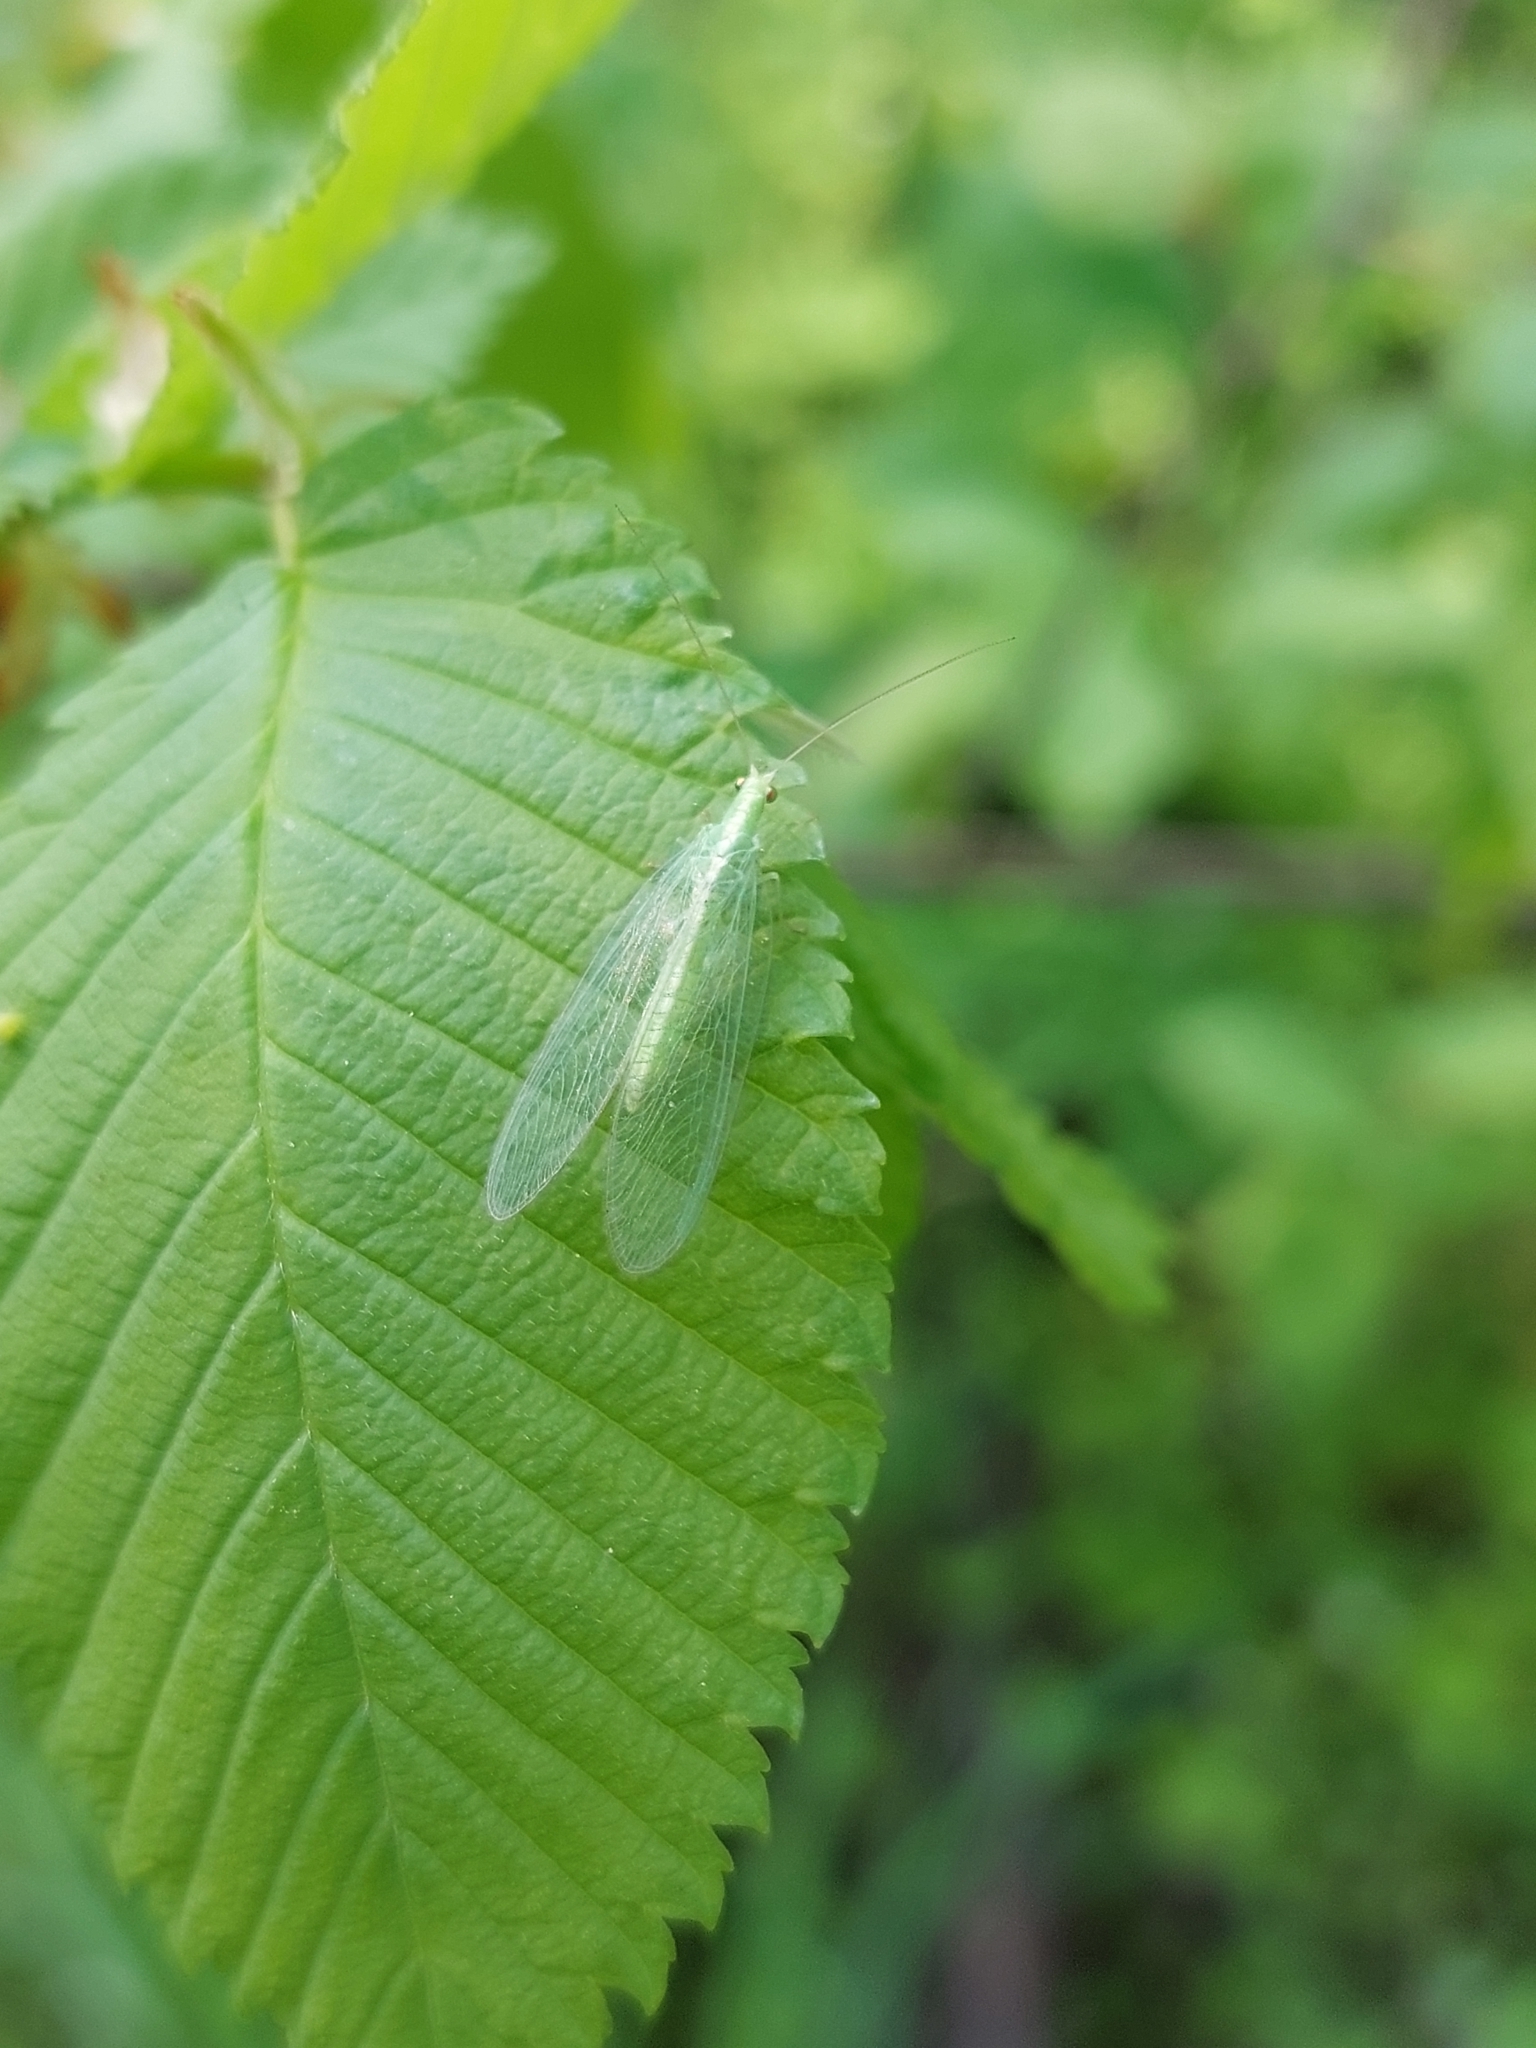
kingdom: Animalia
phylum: Arthropoda
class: Insecta
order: Neuroptera
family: Chrysopidae
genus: Chrysoperla
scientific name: Chrysoperla
